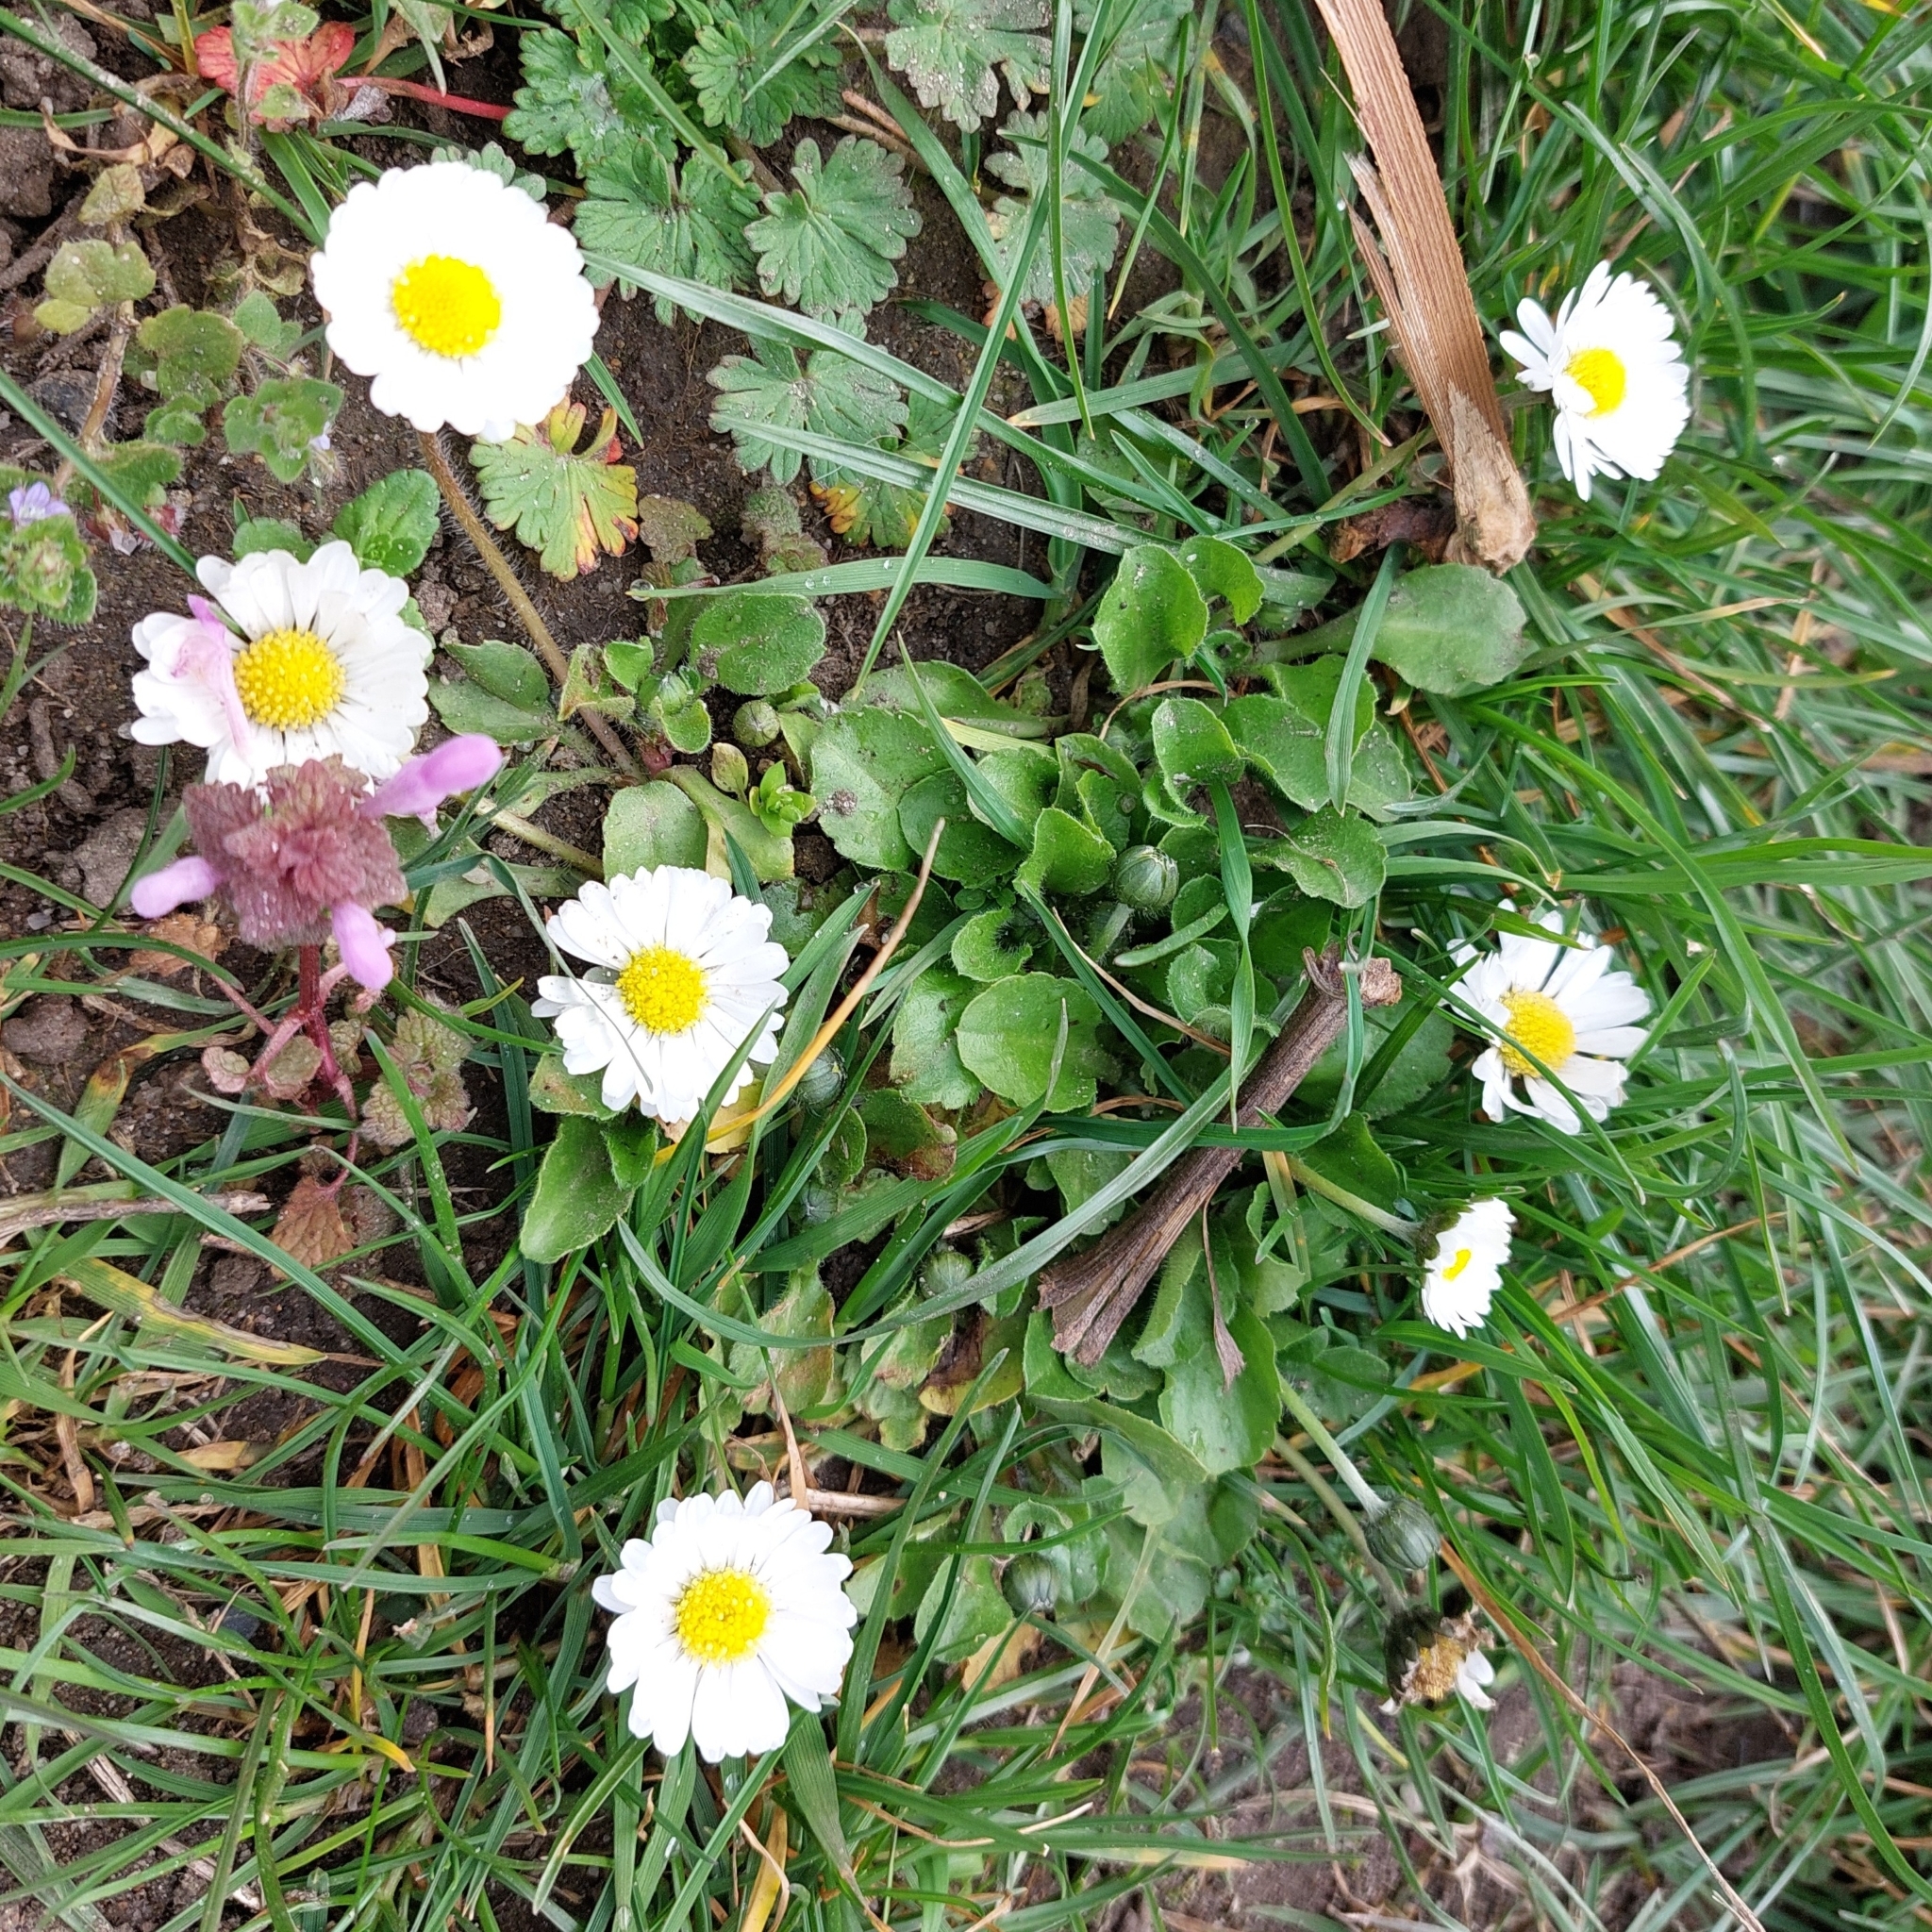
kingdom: Plantae
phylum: Tracheophyta
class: Magnoliopsida
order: Asterales
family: Asteraceae
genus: Bellis
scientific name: Bellis perennis
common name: Lawndaisy
